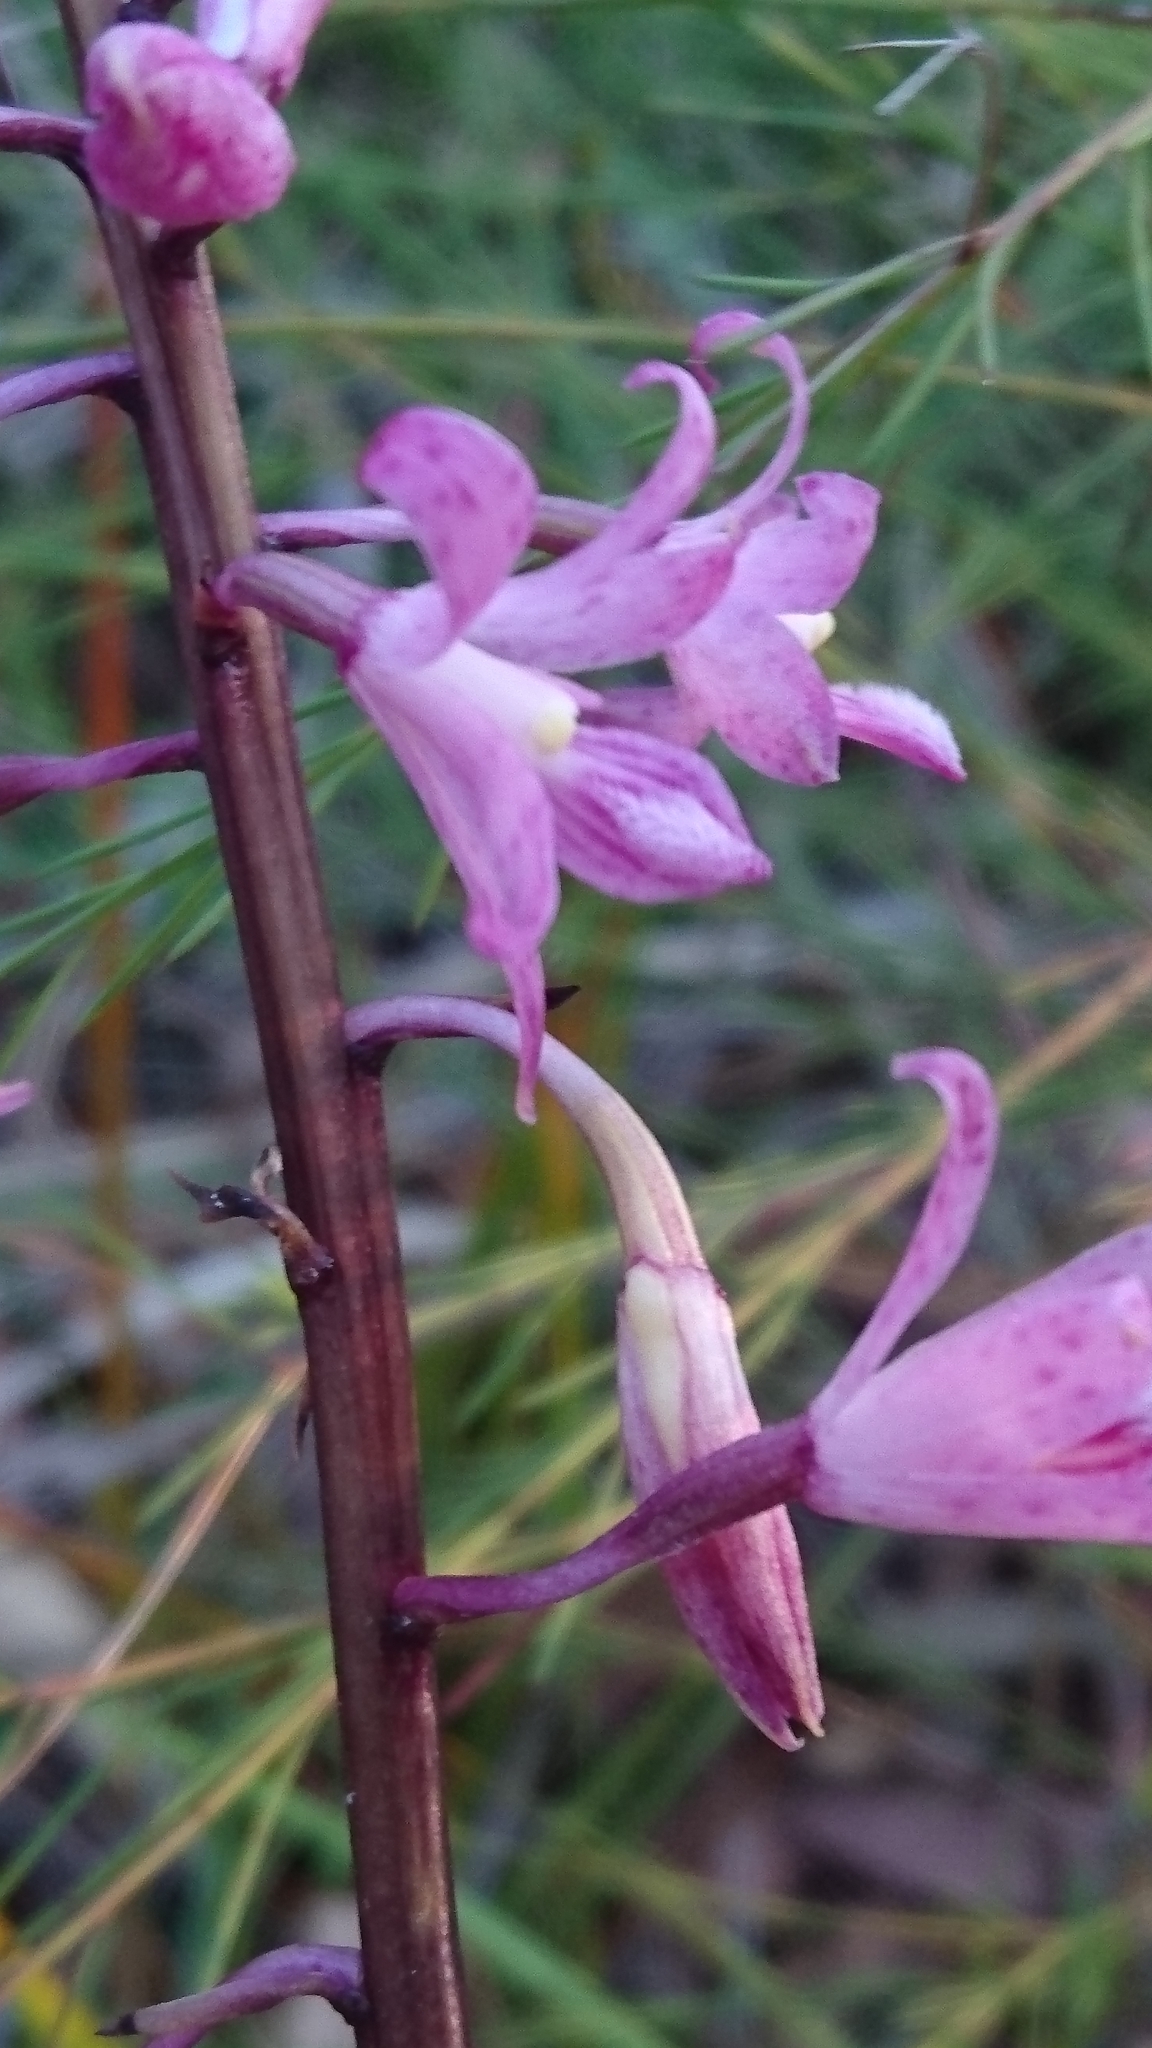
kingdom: Plantae
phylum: Tracheophyta
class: Liliopsida
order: Asparagales
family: Orchidaceae
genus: Dipodium
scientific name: Dipodium roseum
